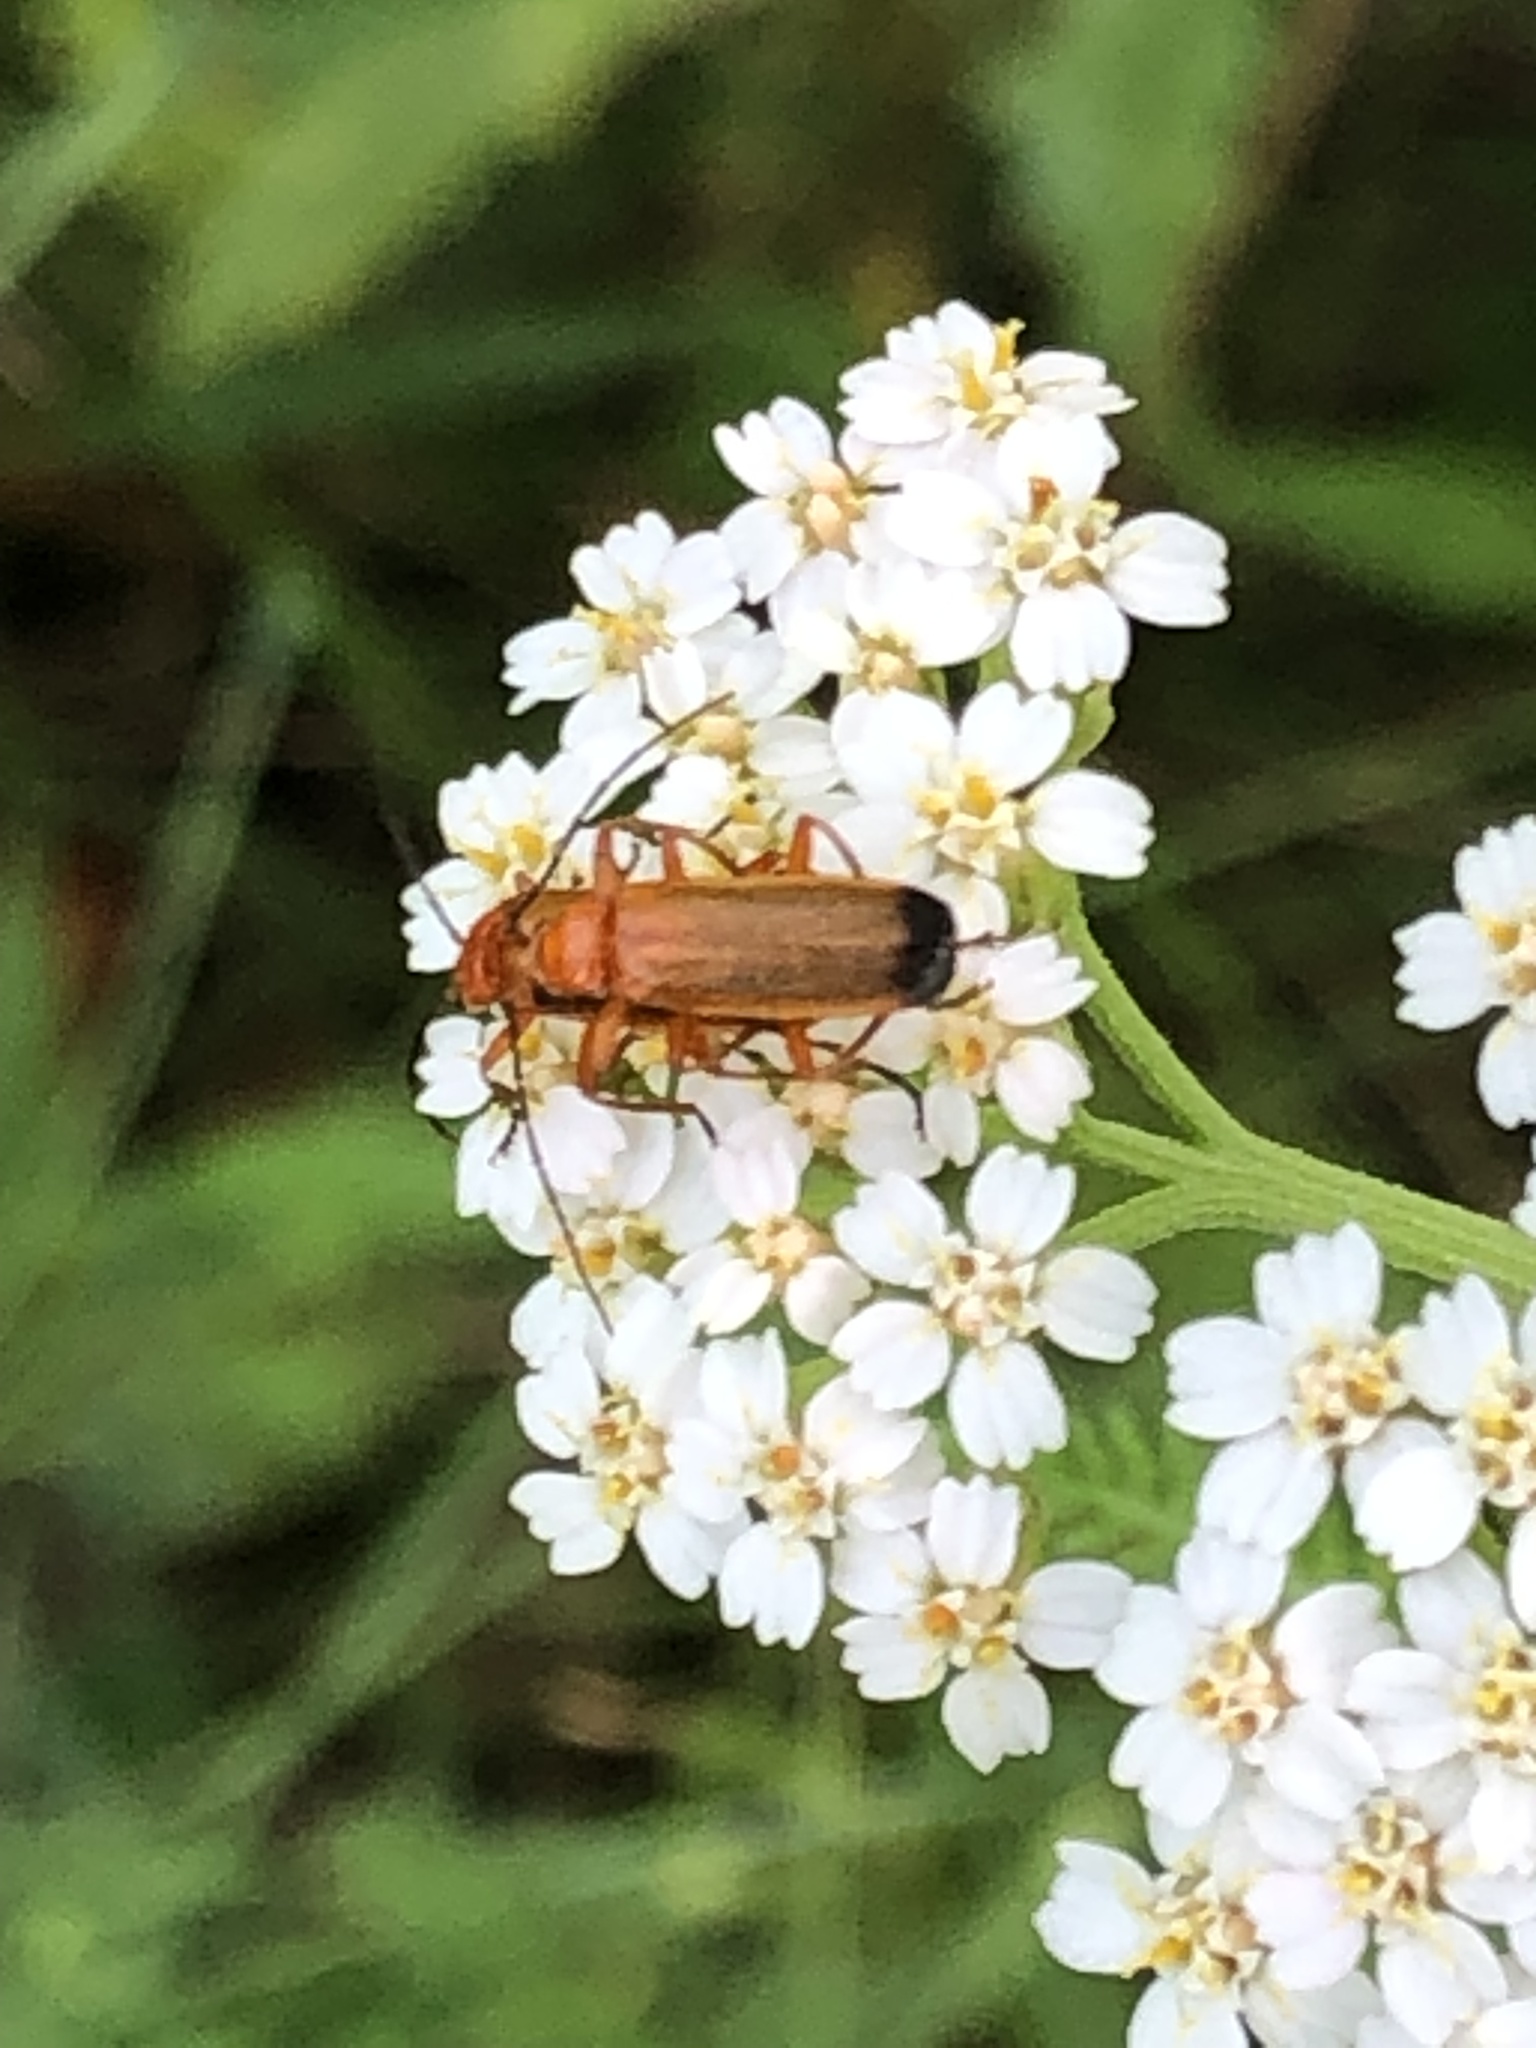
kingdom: Animalia
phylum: Arthropoda
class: Insecta
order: Coleoptera
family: Cantharidae
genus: Rhagonycha
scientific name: Rhagonycha fulva
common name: Common red soldier beetle
